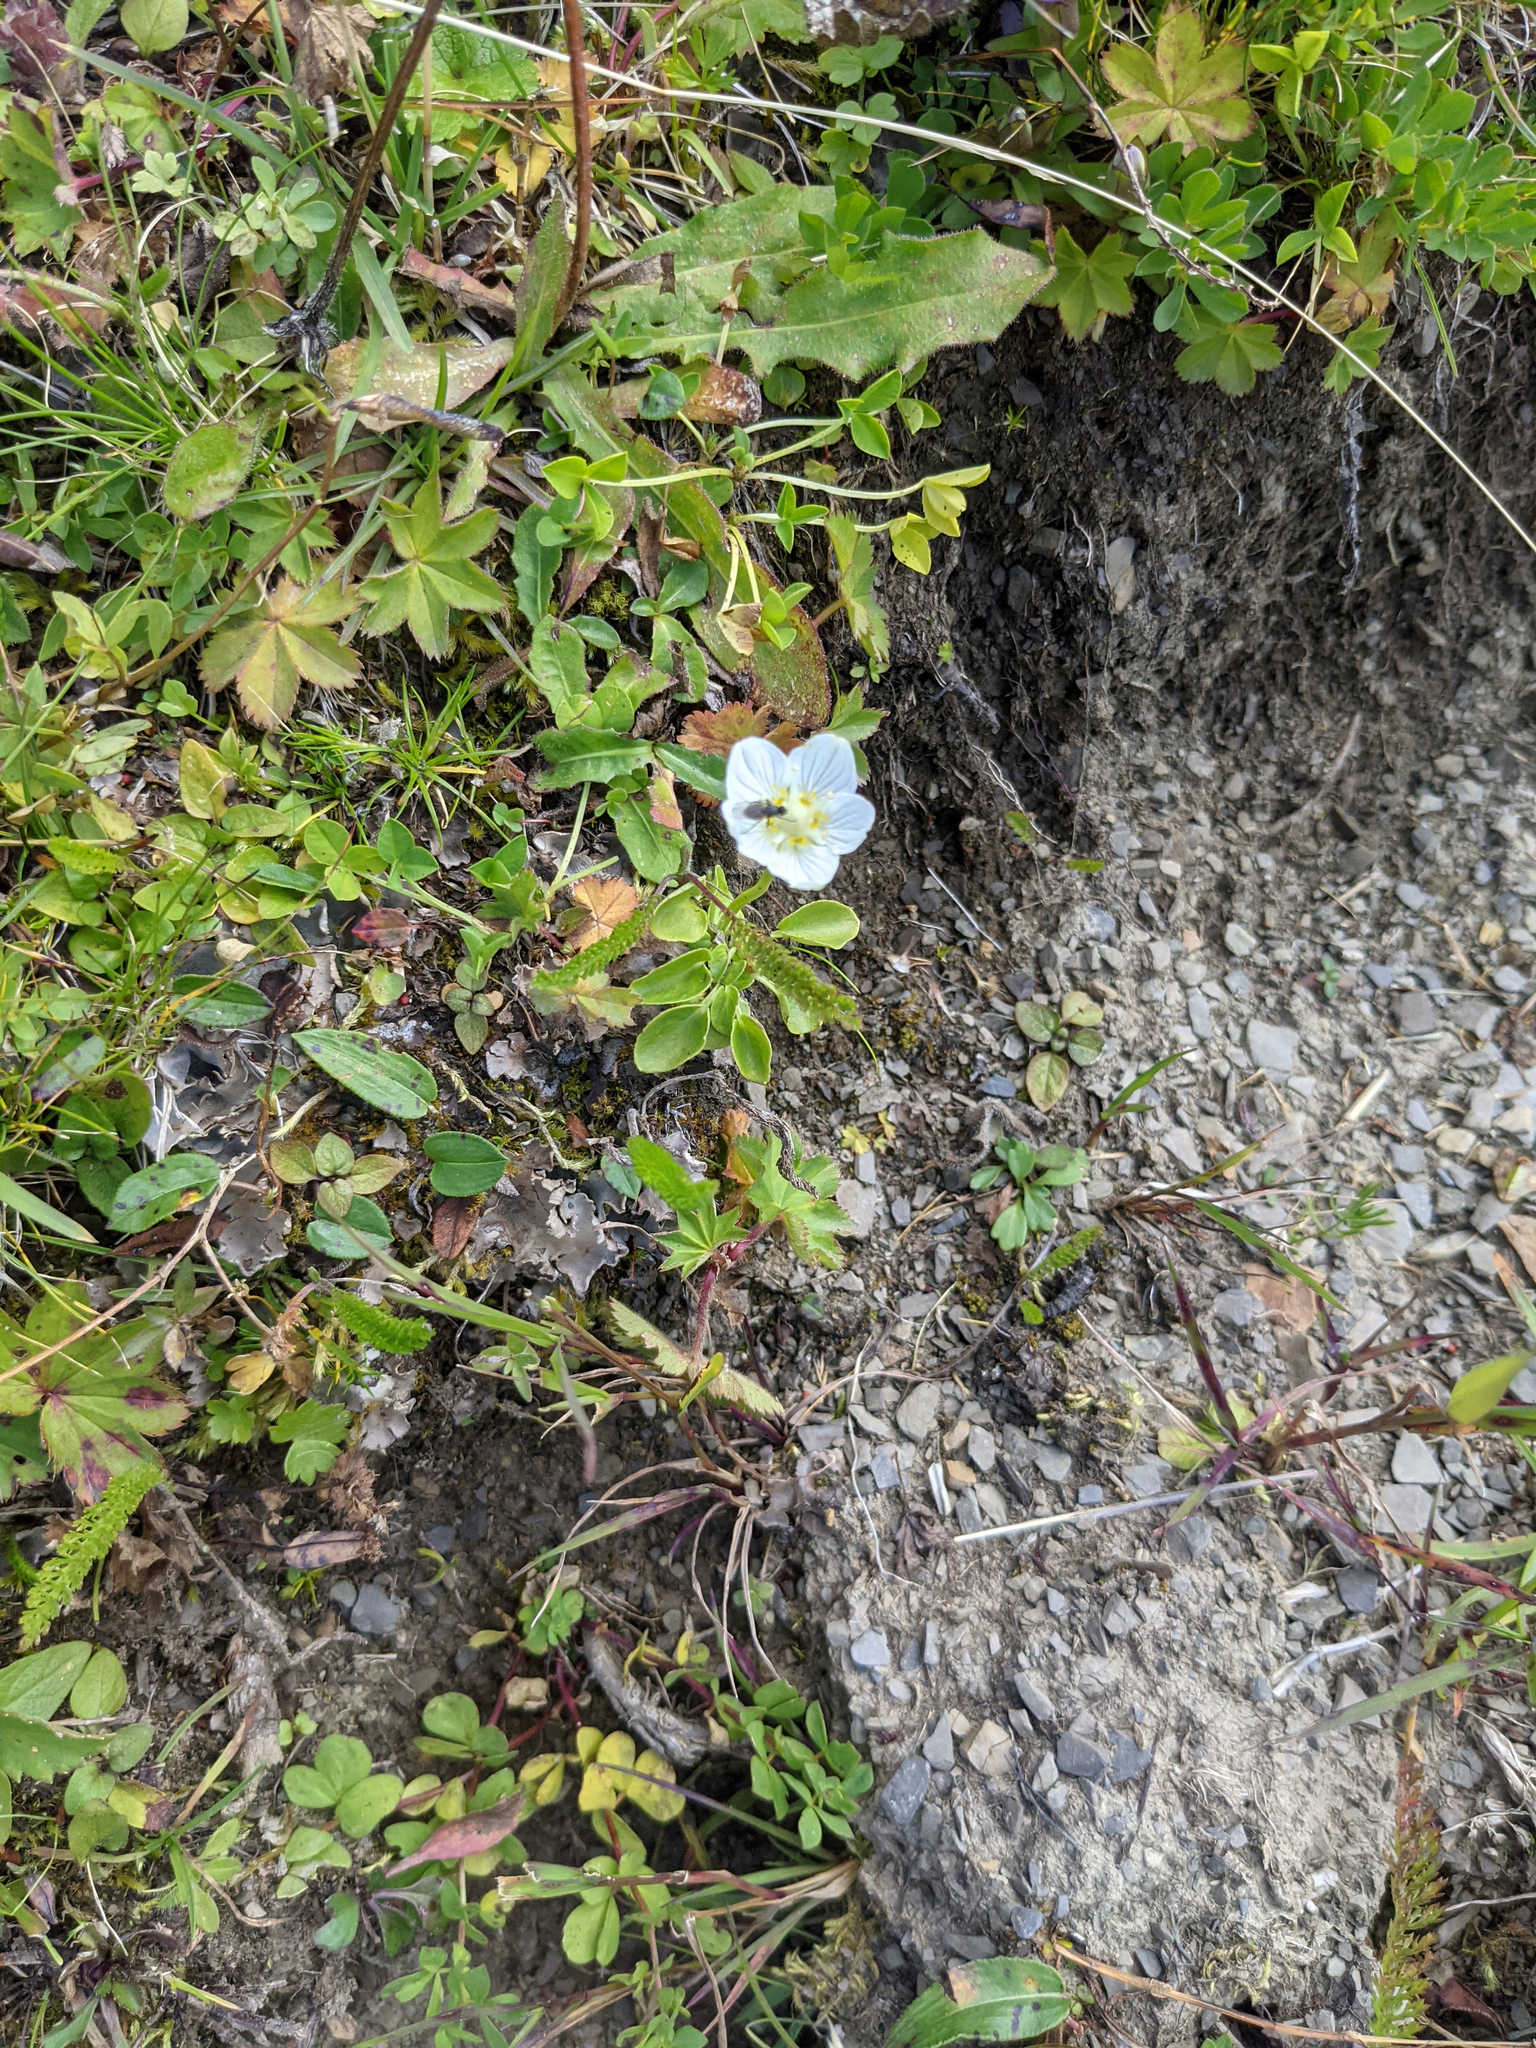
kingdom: Plantae
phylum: Tracheophyta
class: Magnoliopsida
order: Celastrales
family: Parnassiaceae
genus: Parnassia
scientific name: Parnassia palustris
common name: Grass-of-parnassus
